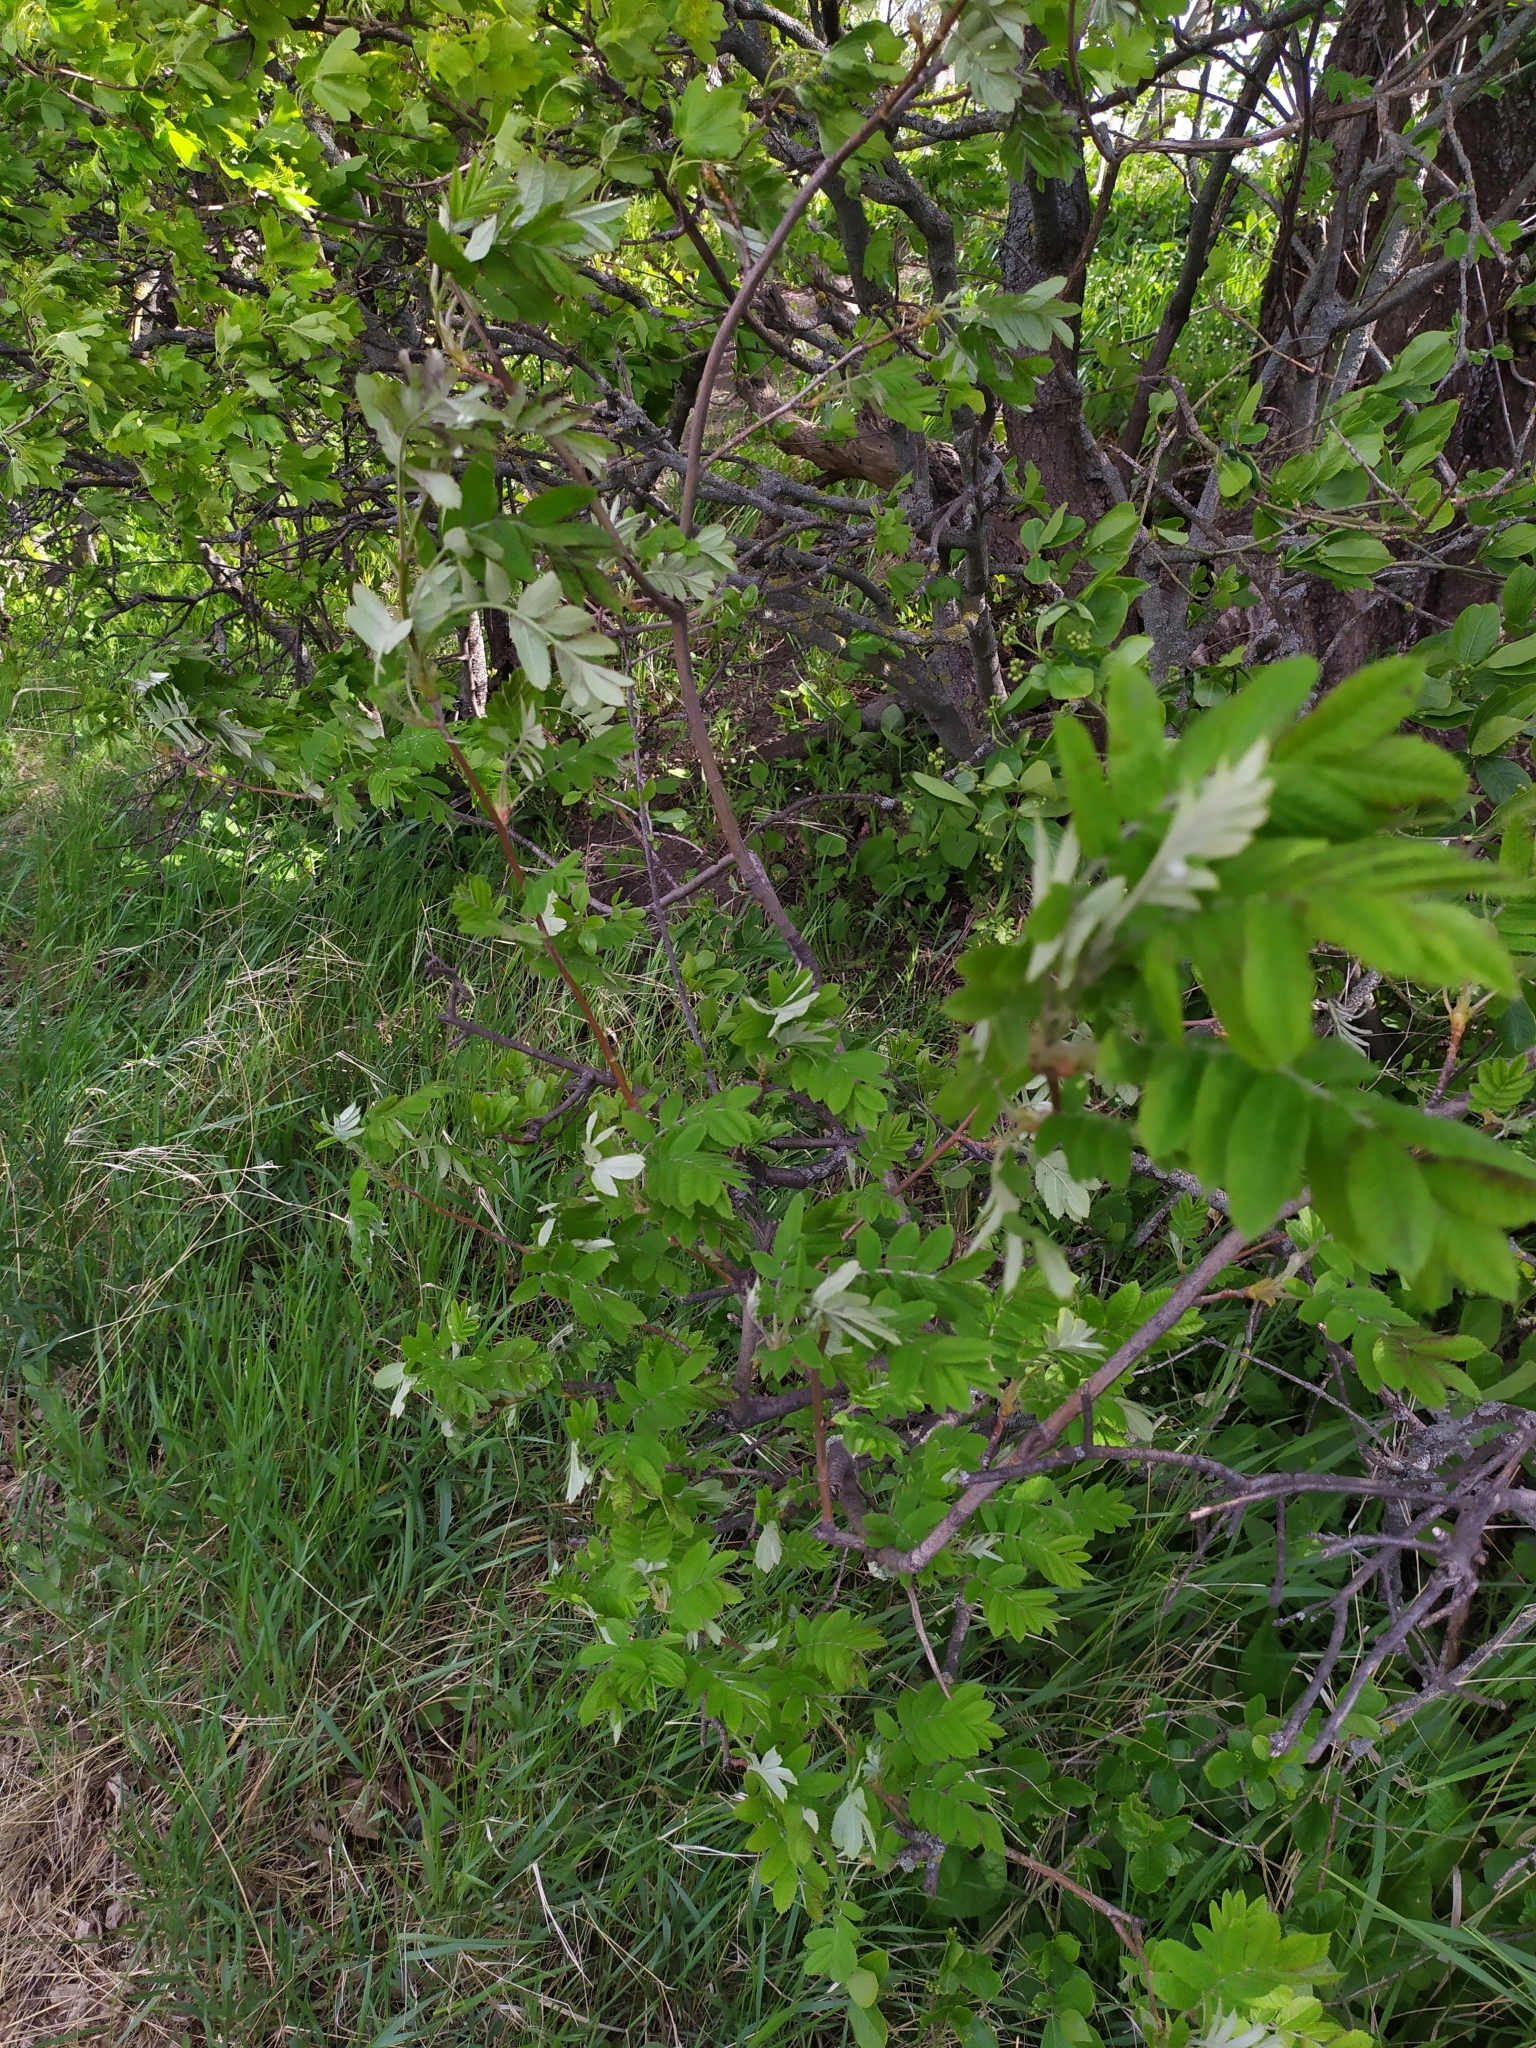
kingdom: Plantae
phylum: Tracheophyta
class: Magnoliopsida
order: Rosales
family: Rosaceae
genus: Sorbus
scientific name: Sorbus aucuparia
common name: Rowan
